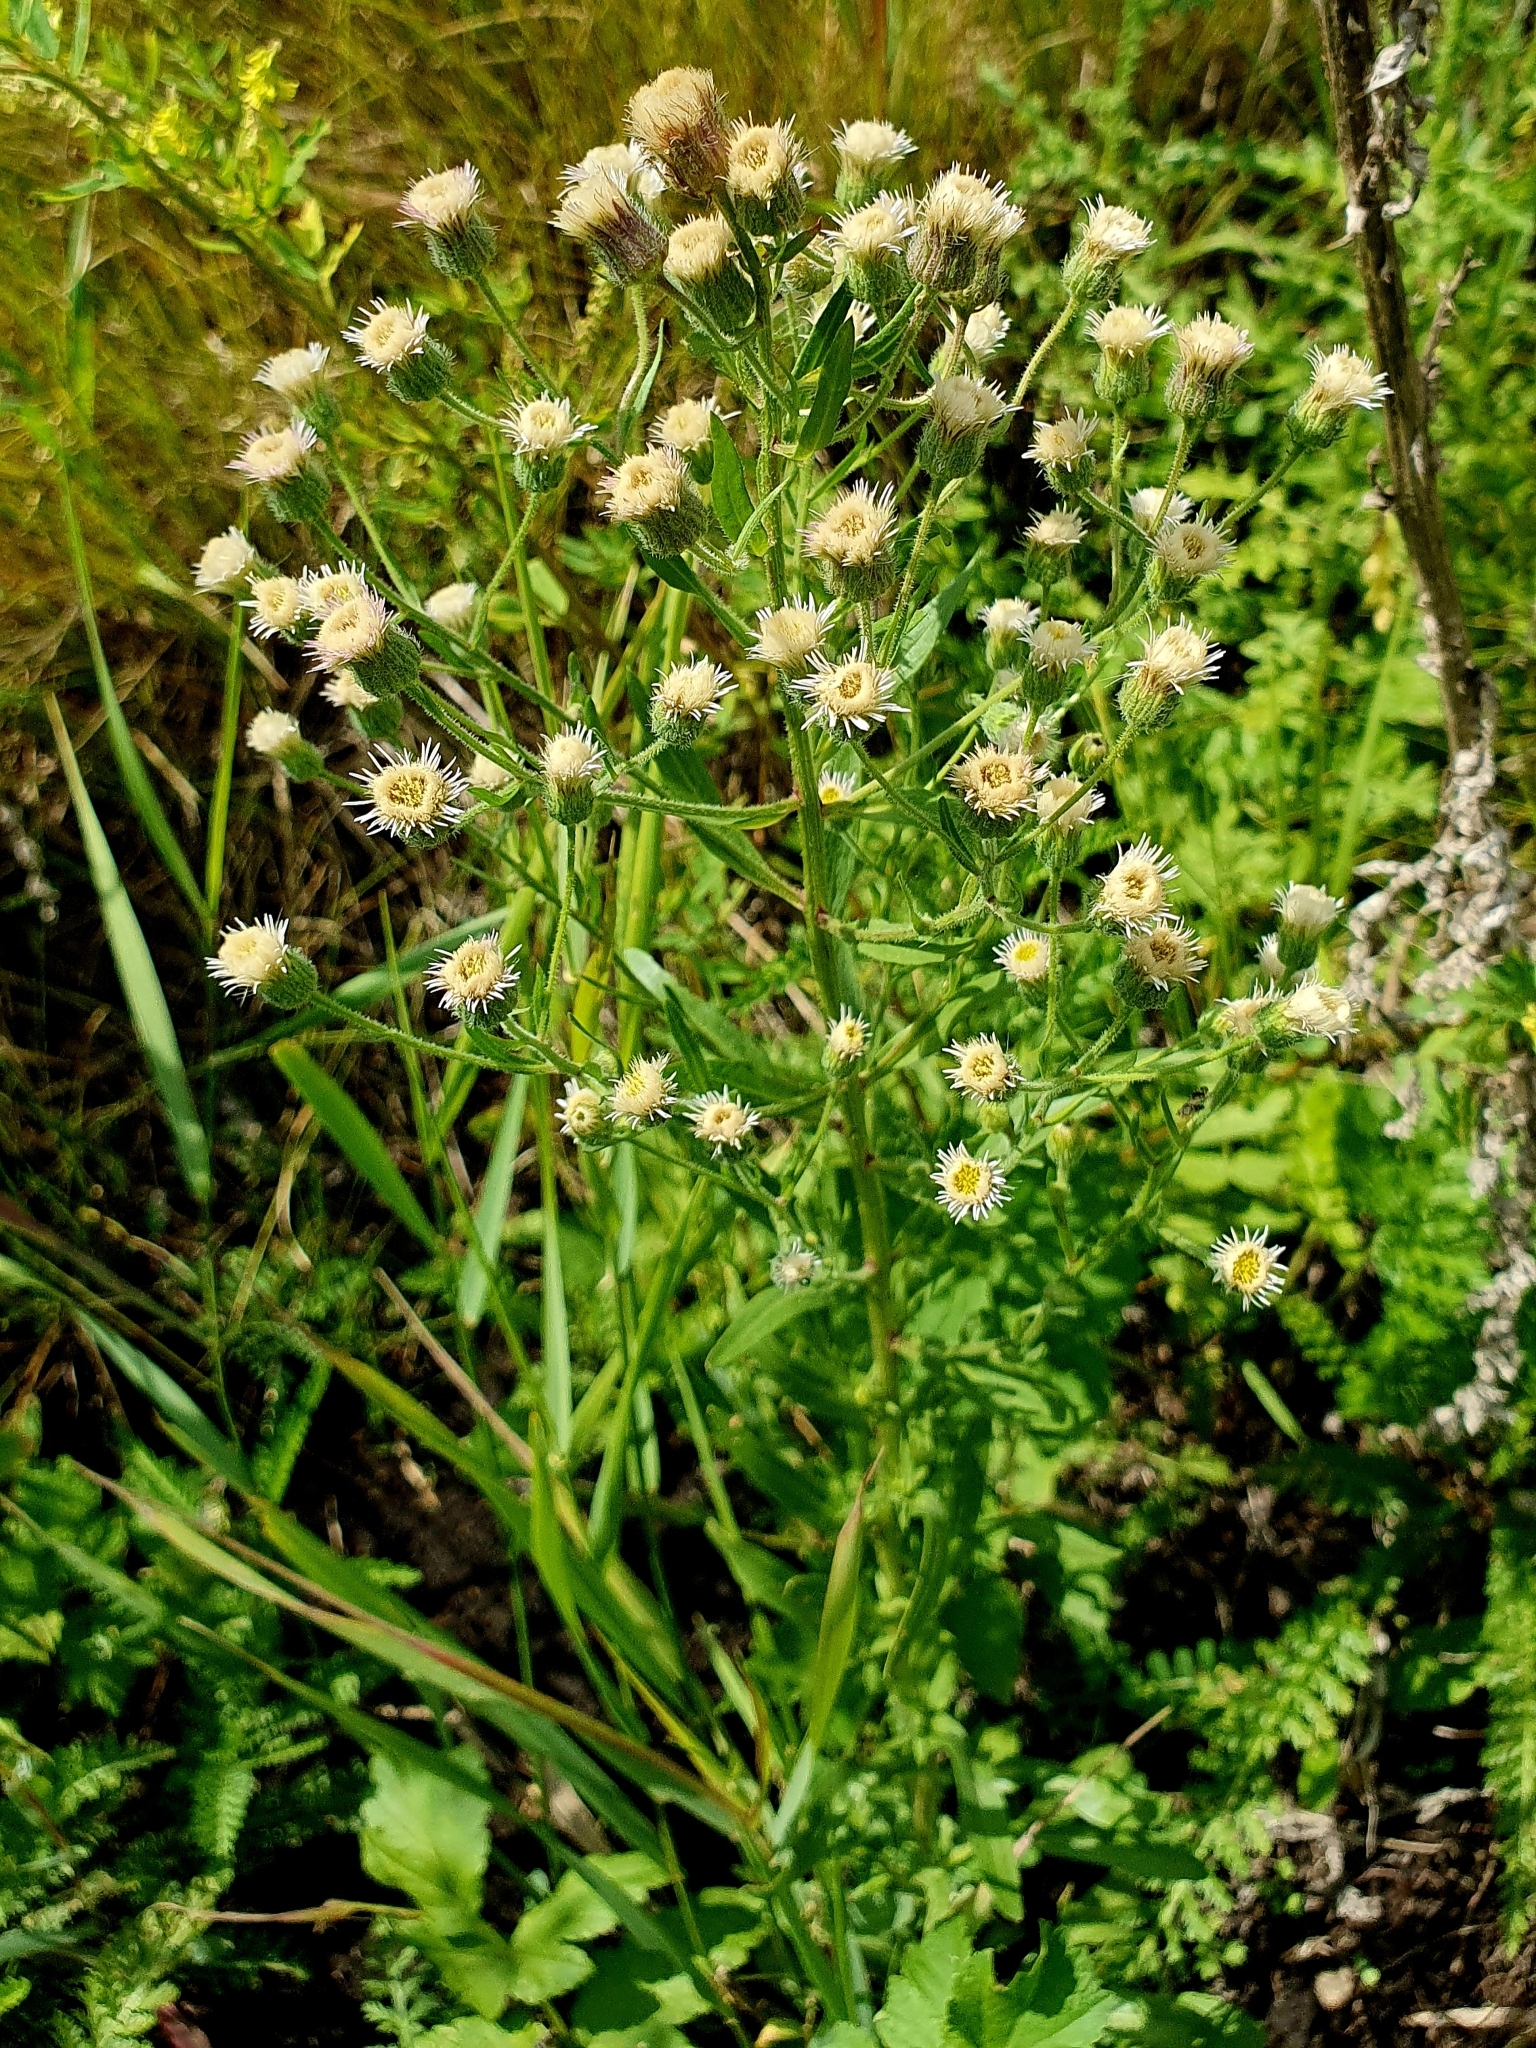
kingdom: Plantae
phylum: Tracheophyta
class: Magnoliopsida
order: Asterales
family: Asteraceae
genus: Erigeron
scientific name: Erigeron acris
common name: Blue fleabane
